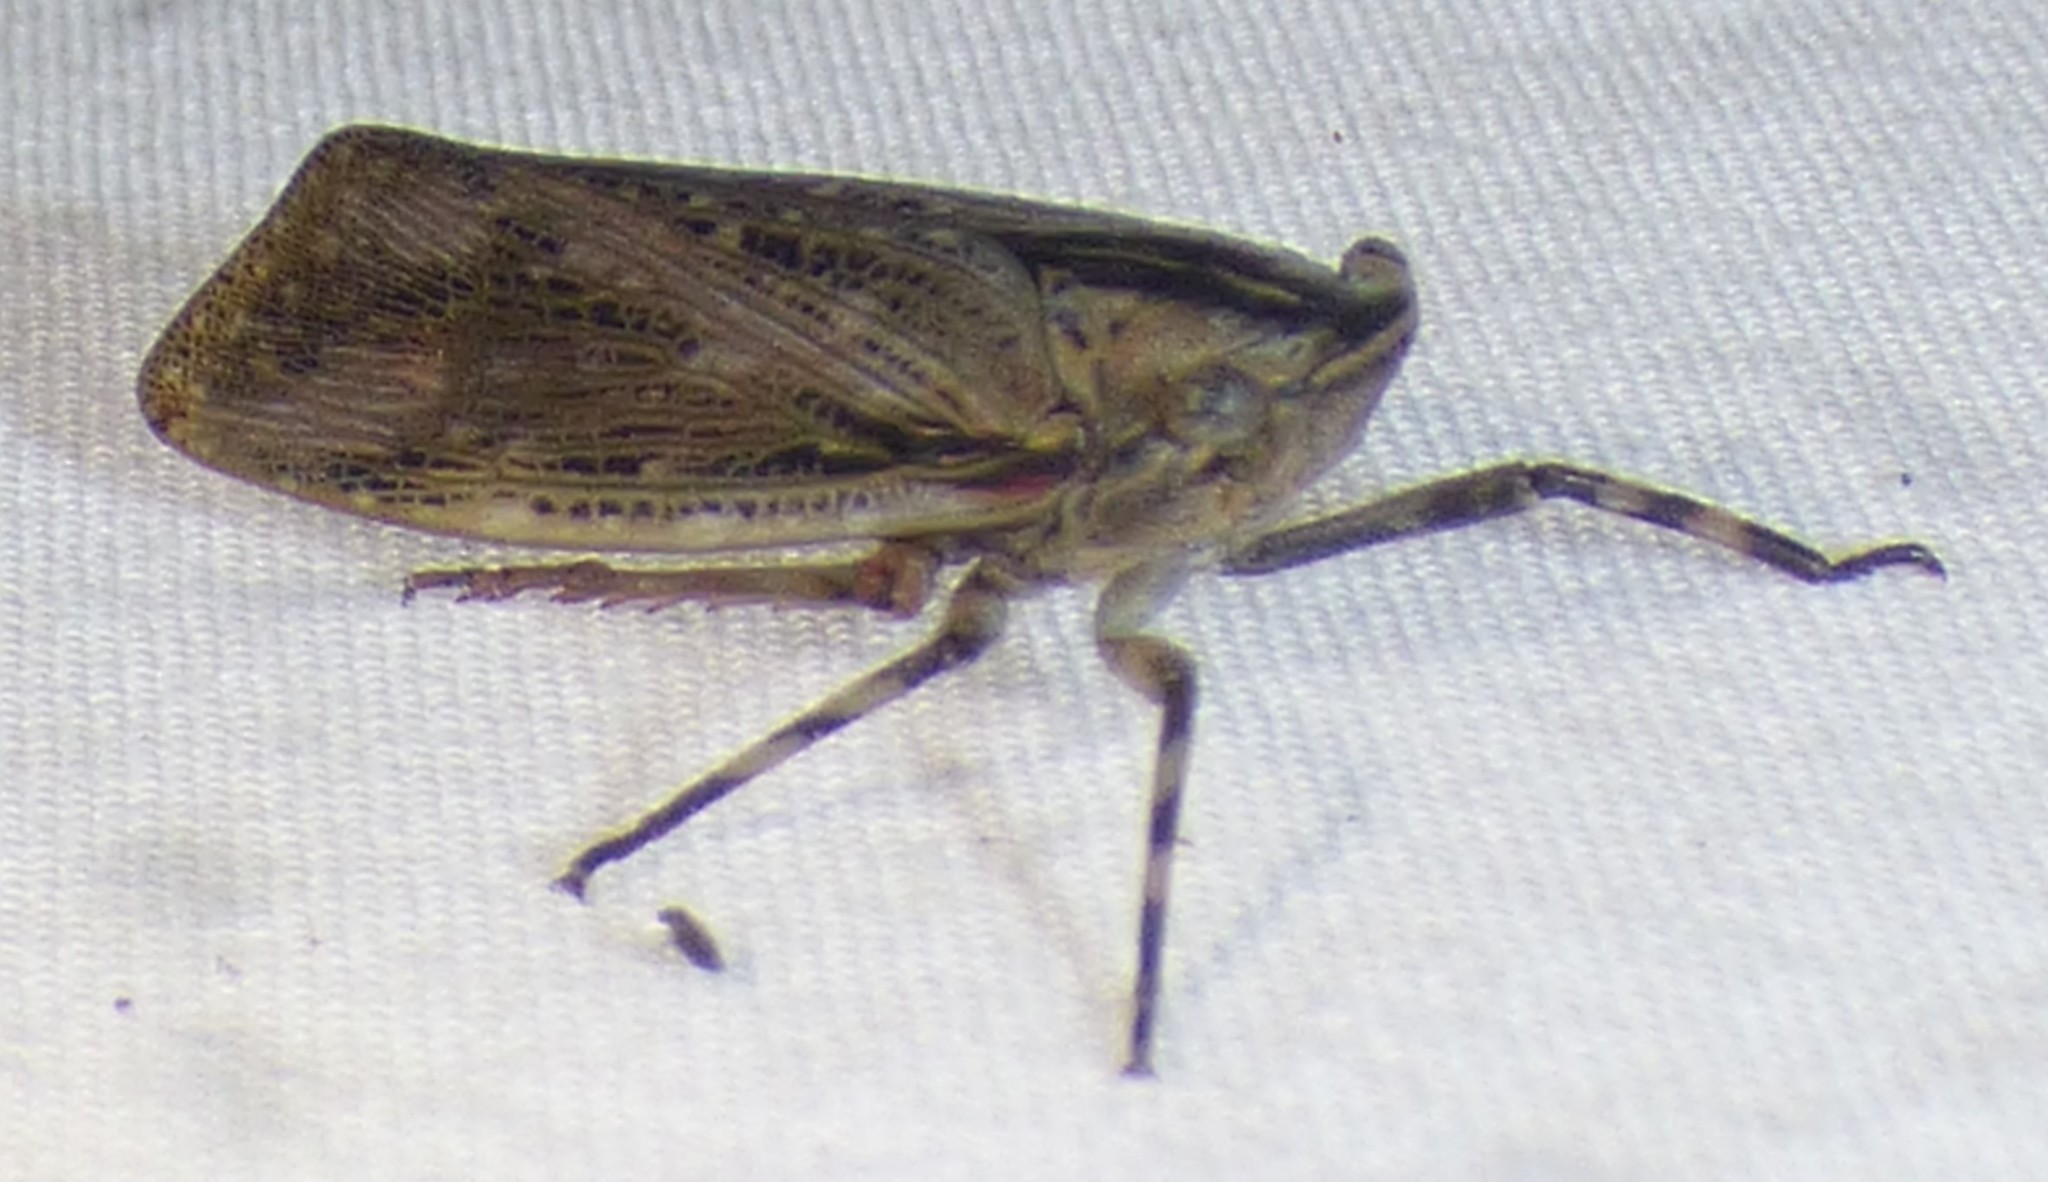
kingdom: Animalia
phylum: Arthropoda
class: Insecta
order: Hemiptera
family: Fulgoridae
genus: Poblicia
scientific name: Poblicia texana
